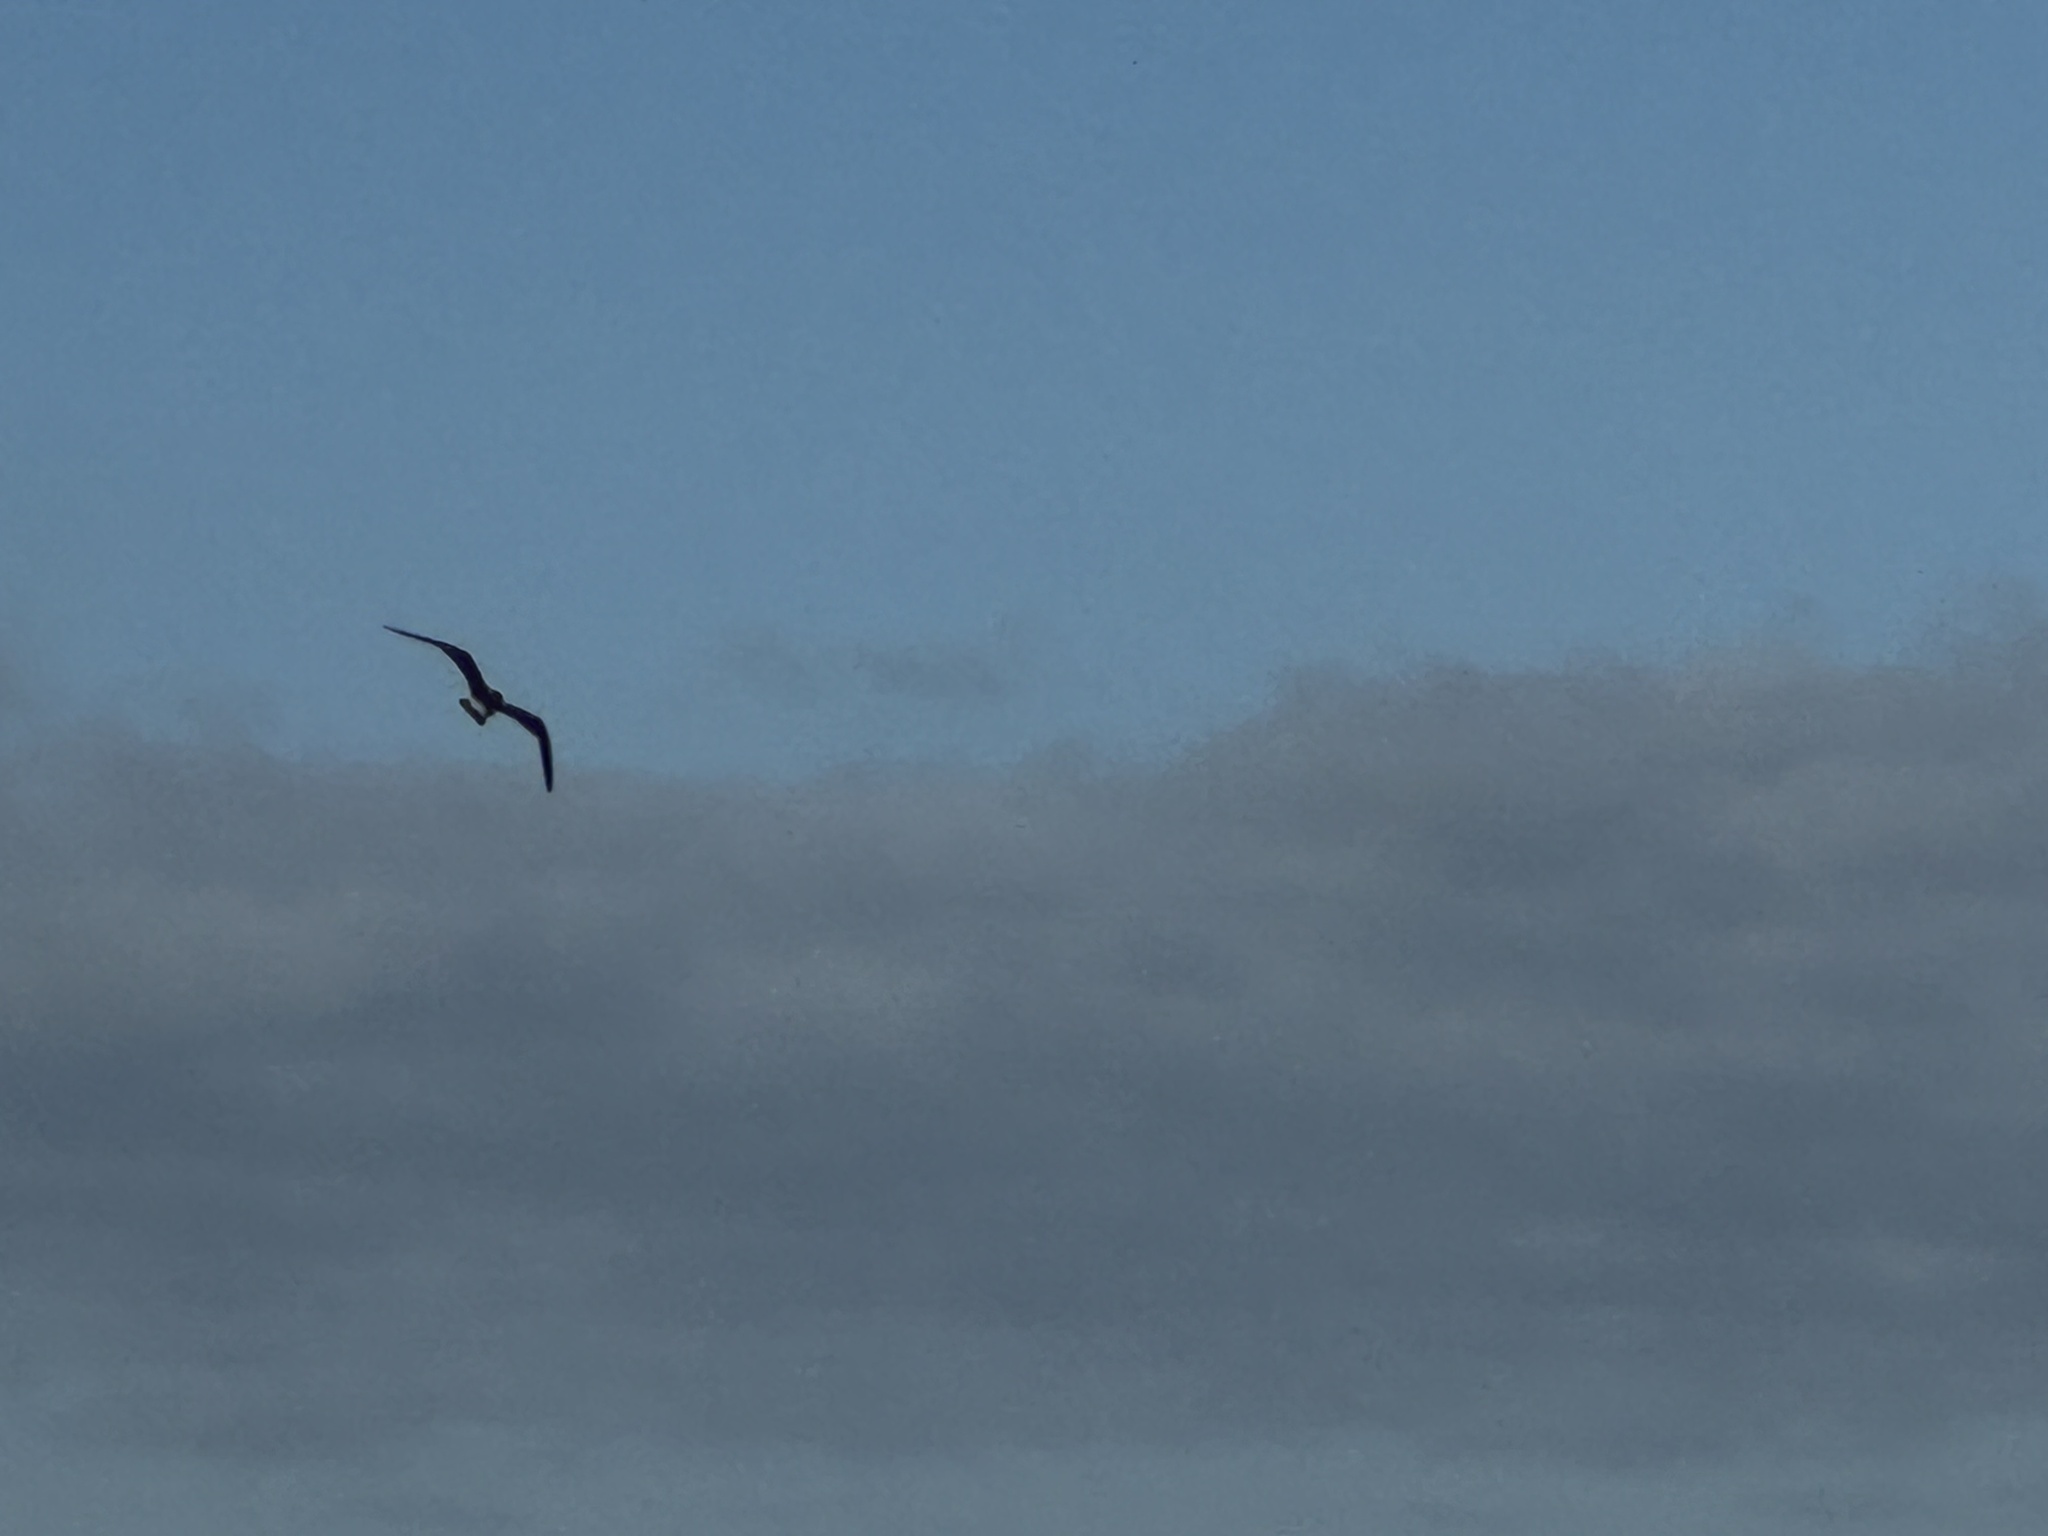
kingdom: Animalia
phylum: Chordata
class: Aves
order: Charadriiformes
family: Laridae
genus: Leucophaeus
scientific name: Leucophaeus atricilla
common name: Laughing gull
